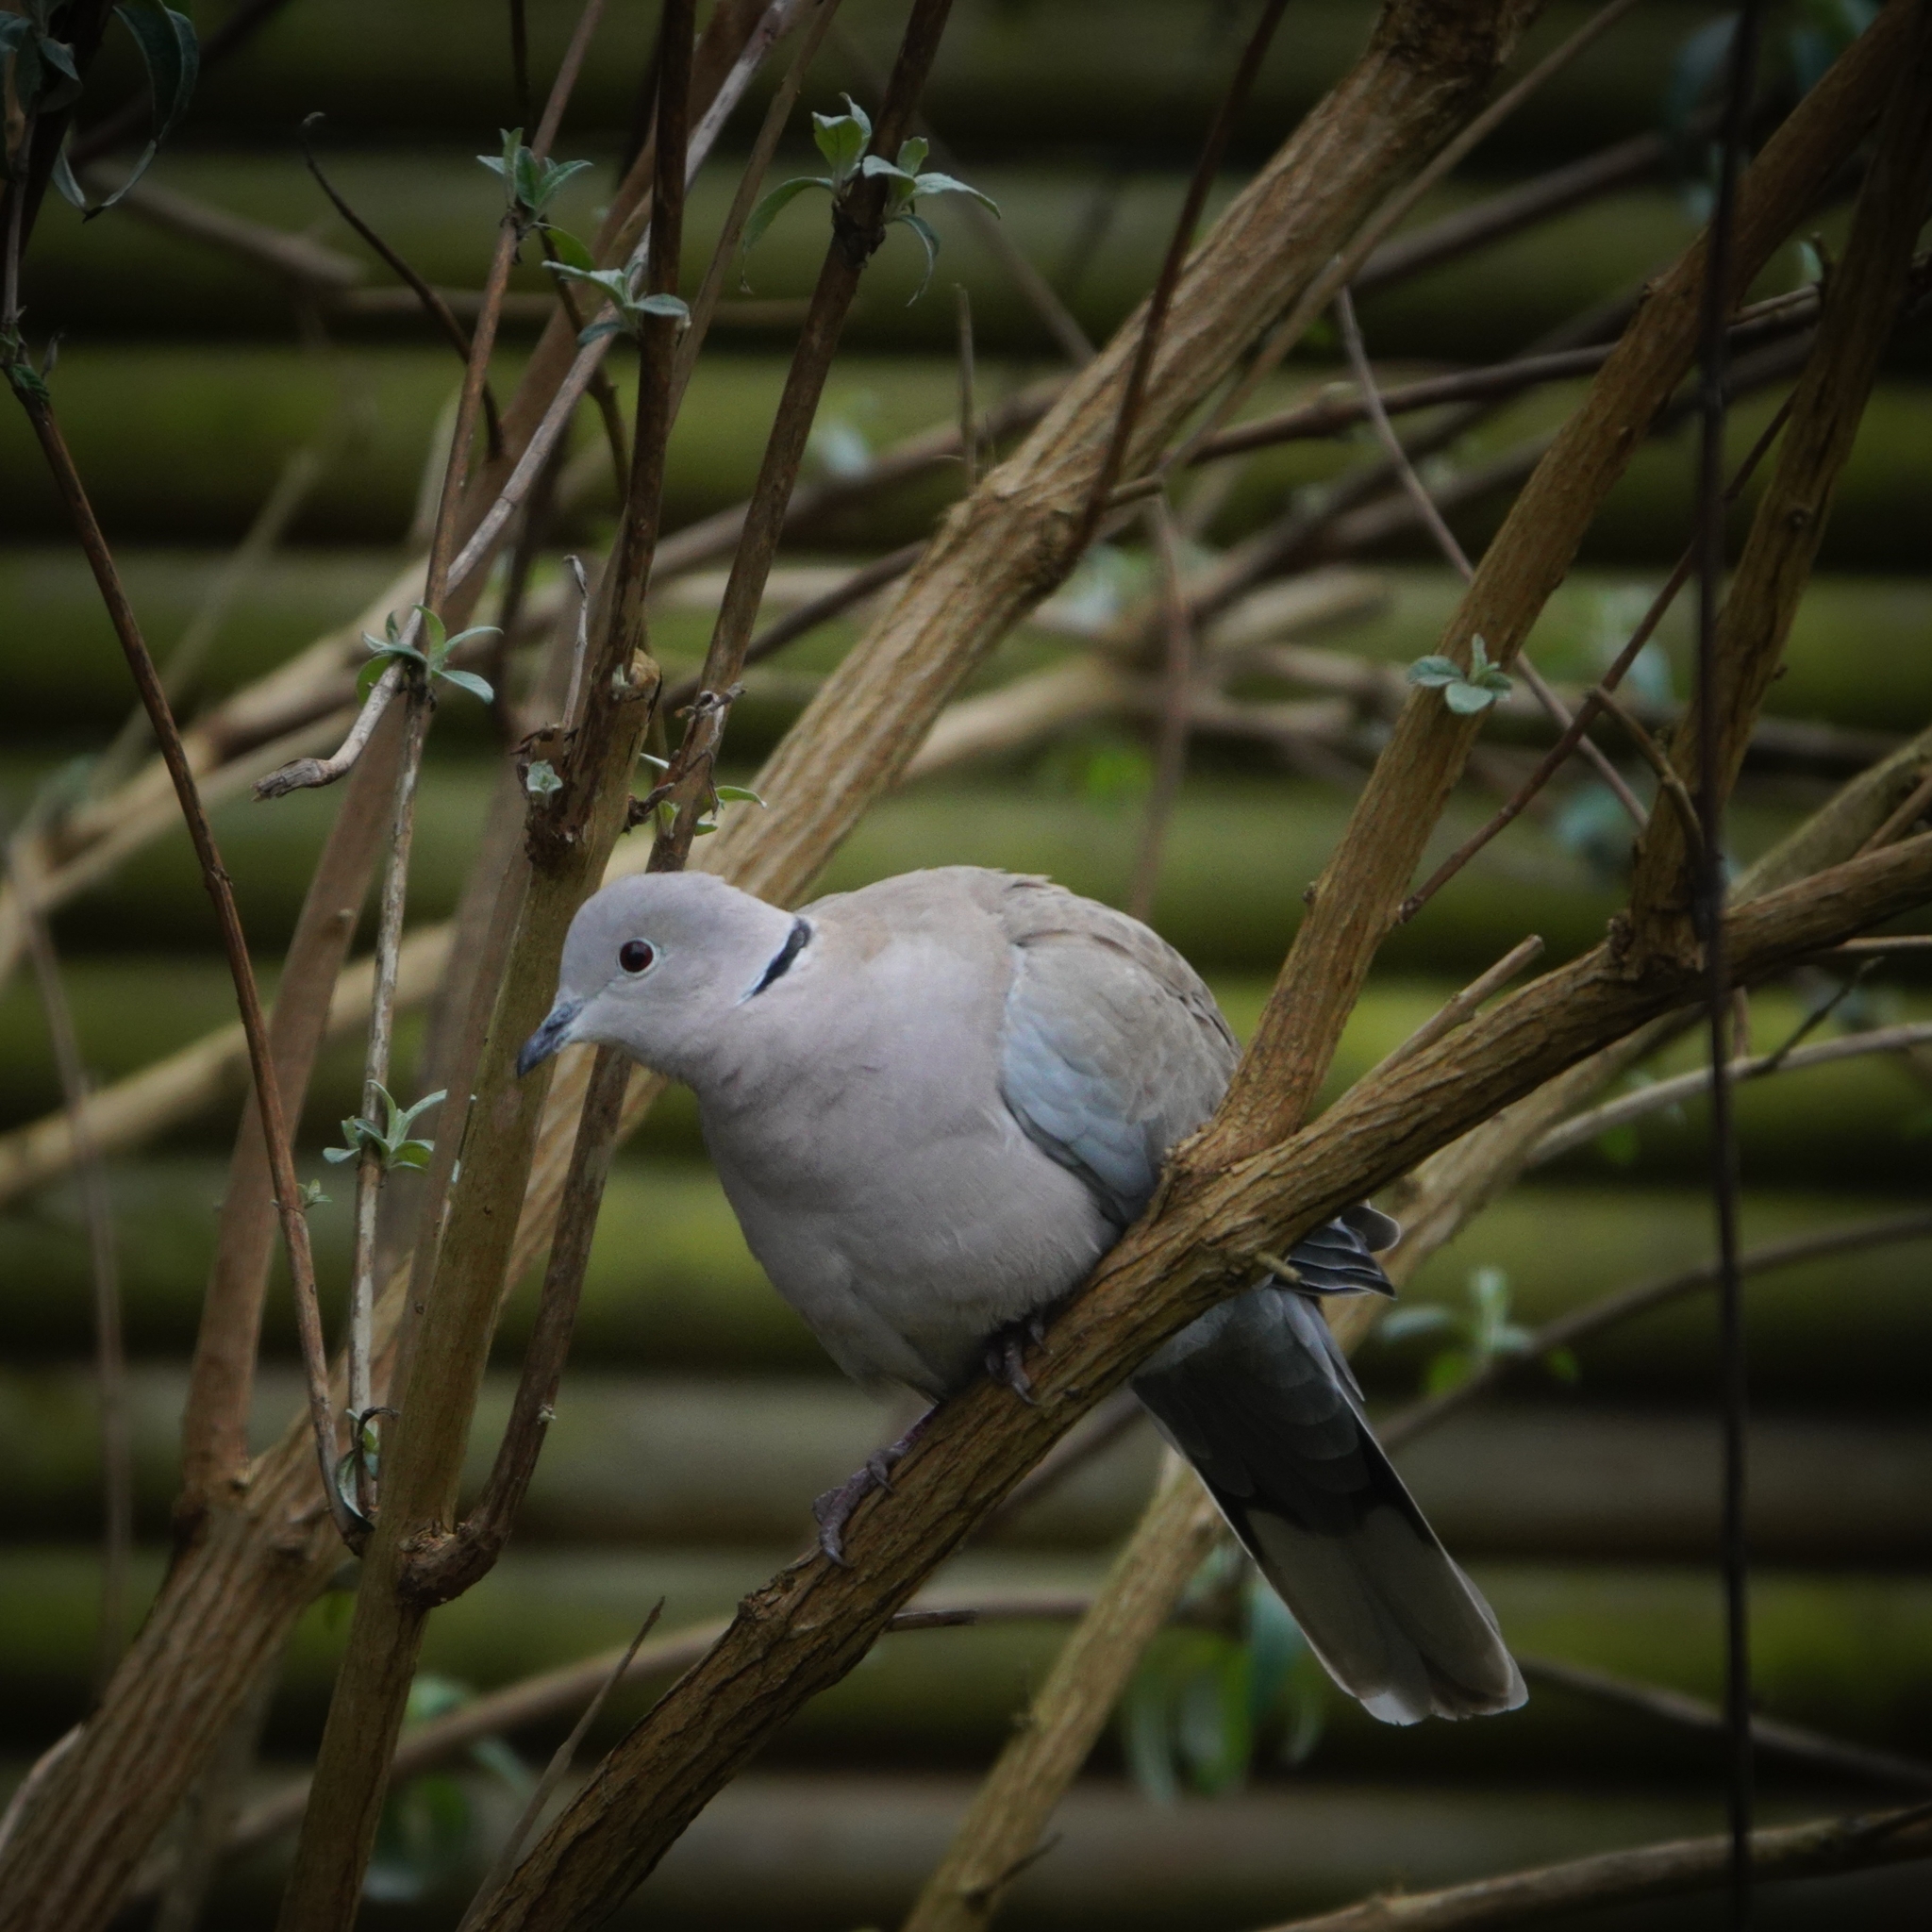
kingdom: Animalia
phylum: Chordata
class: Aves
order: Columbiformes
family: Columbidae
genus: Streptopelia
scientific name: Streptopelia decaocto
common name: Eurasian collared dove
